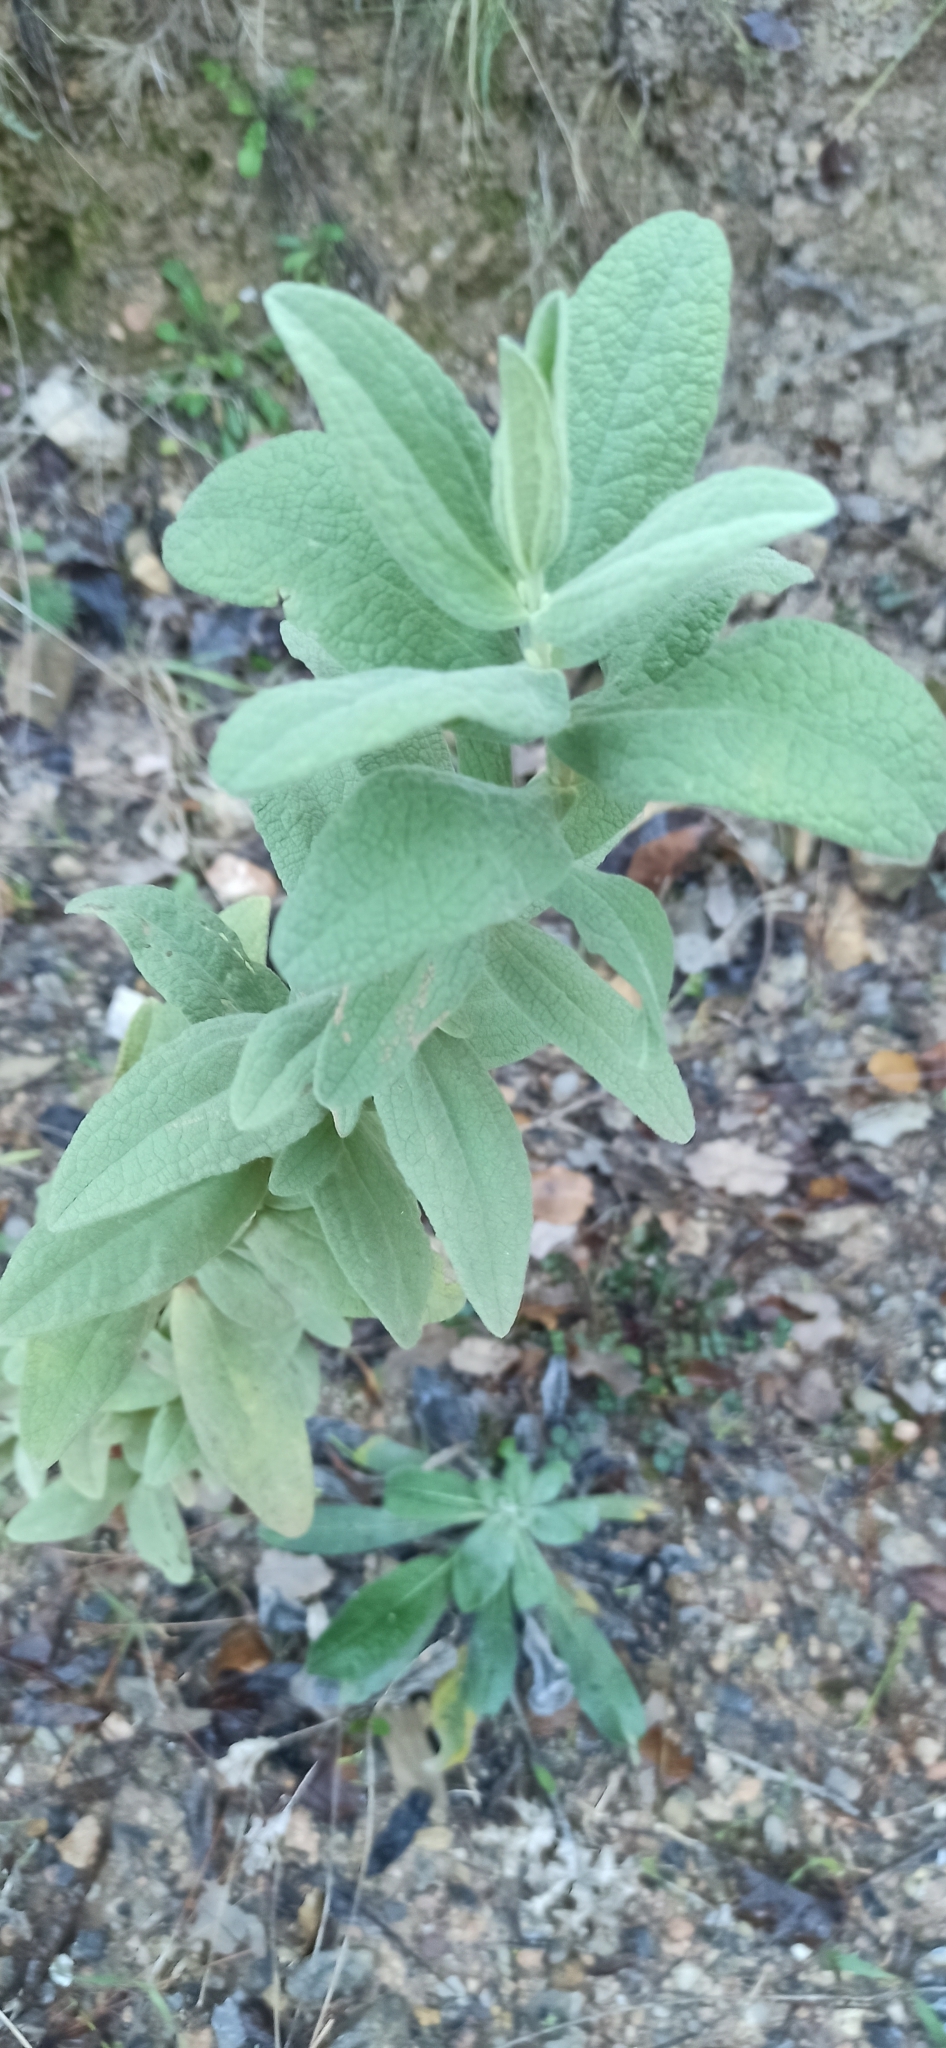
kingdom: Plantae
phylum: Tracheophyta
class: Magnoliopsida
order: Malvales
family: Cistaceae
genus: Cistus
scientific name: Cistus albidus
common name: White-leaf rock-rose
